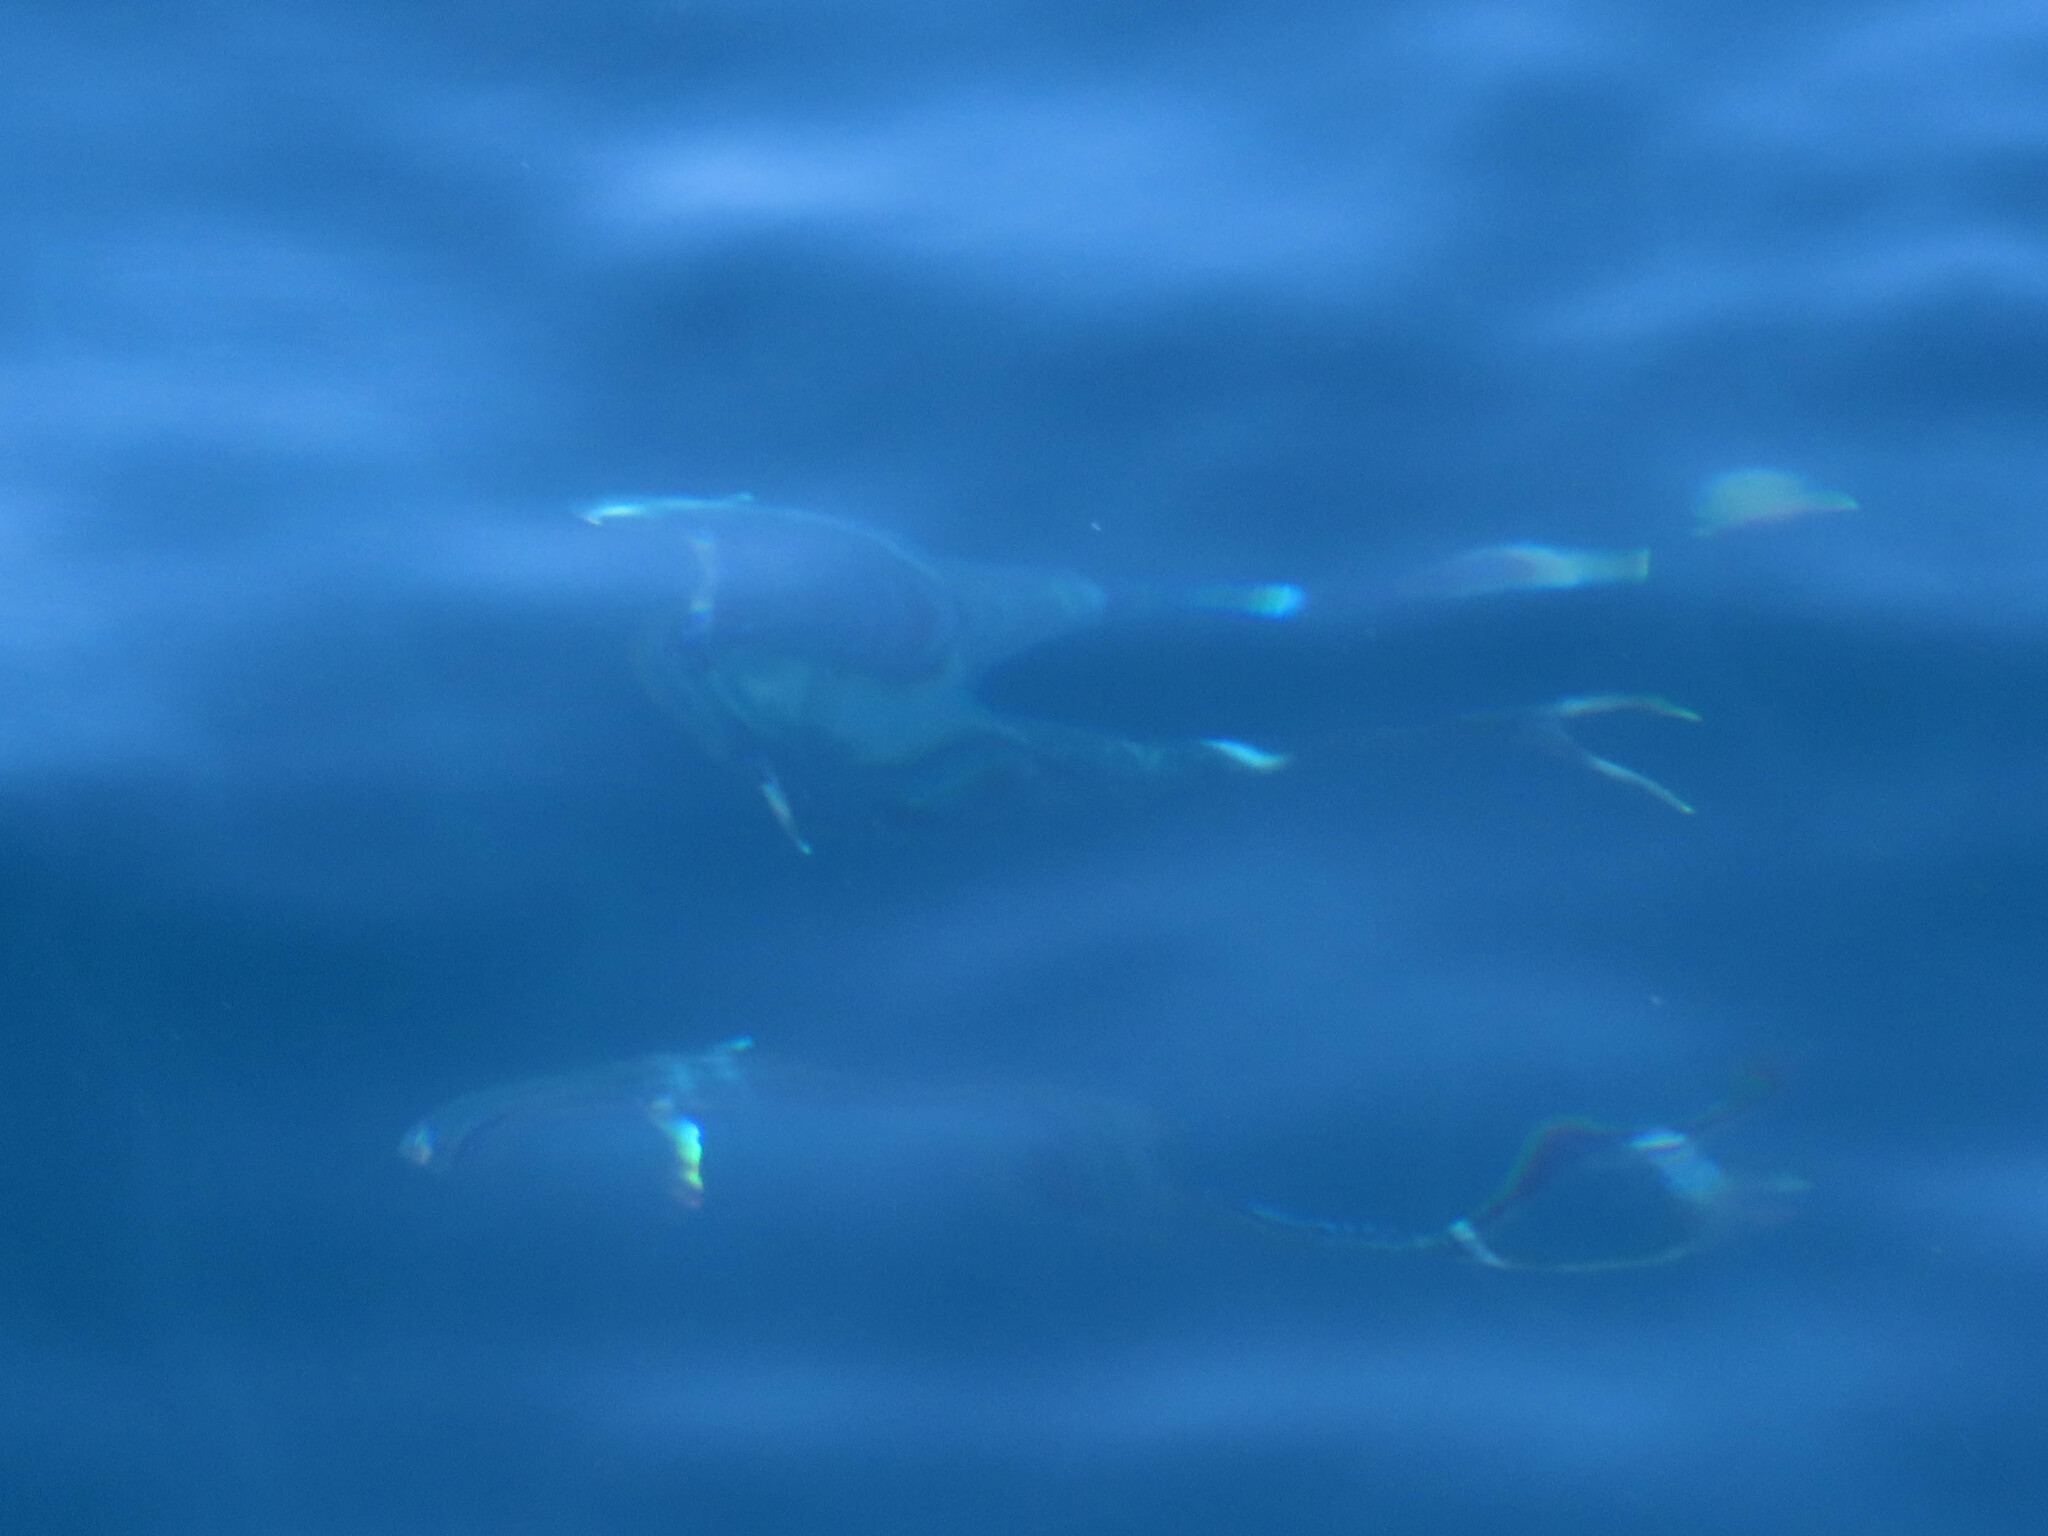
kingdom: Animalia
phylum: Chordata
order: Perciformes
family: Coryphaenidae
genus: Coryphaena
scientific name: Coryphaena hippurus
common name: Dolphin
